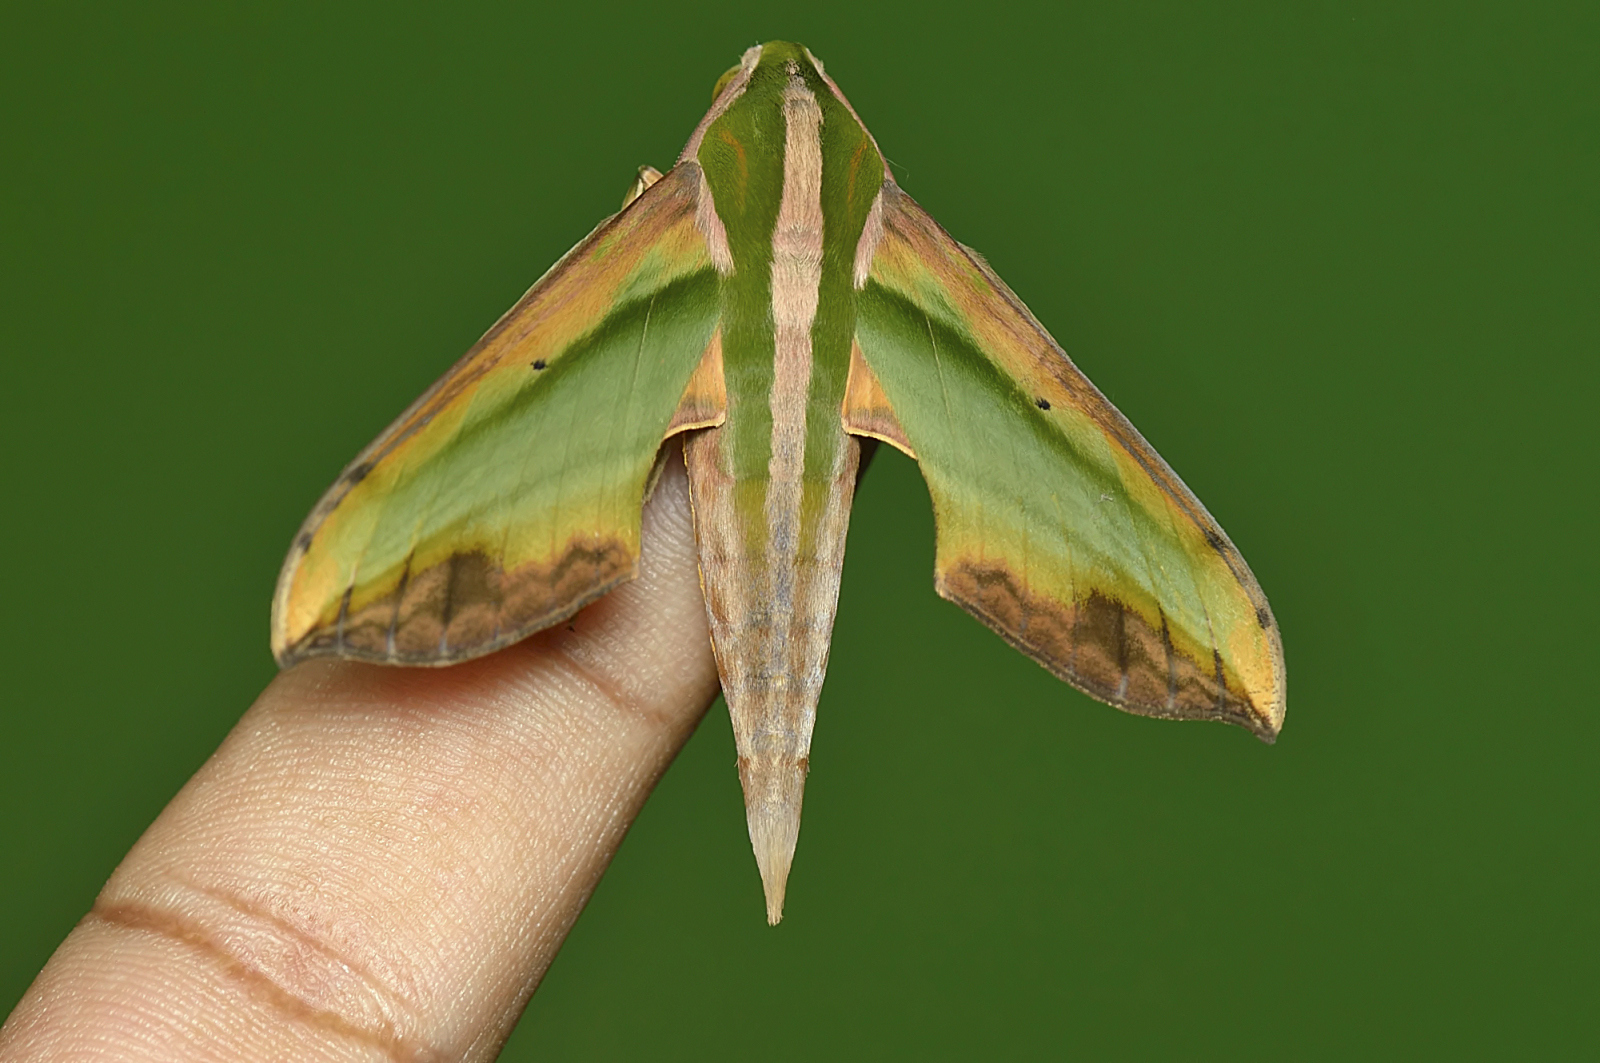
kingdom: Animalia
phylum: Arthropoda
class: Insecta
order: Lepidoptera
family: Sphingidae
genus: Pergesa
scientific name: Pergesa acteus
